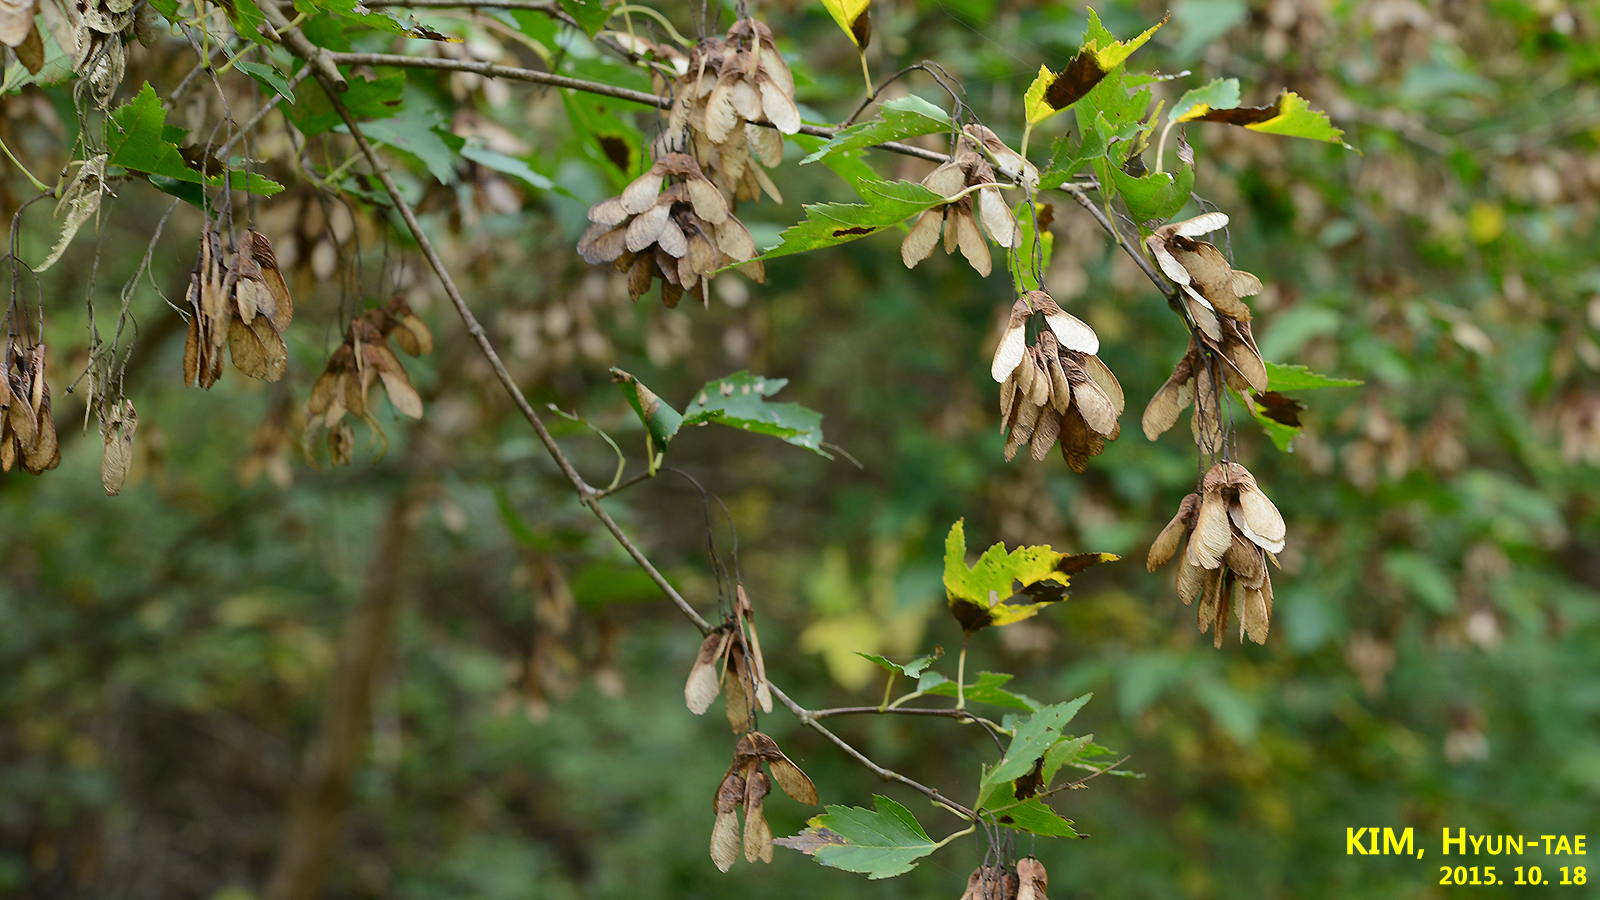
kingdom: Plantae
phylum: Tracheophyta
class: Magnoliopsida
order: Sapindales
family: Sapindaceae
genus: Acer
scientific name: Acer ukurunduense
